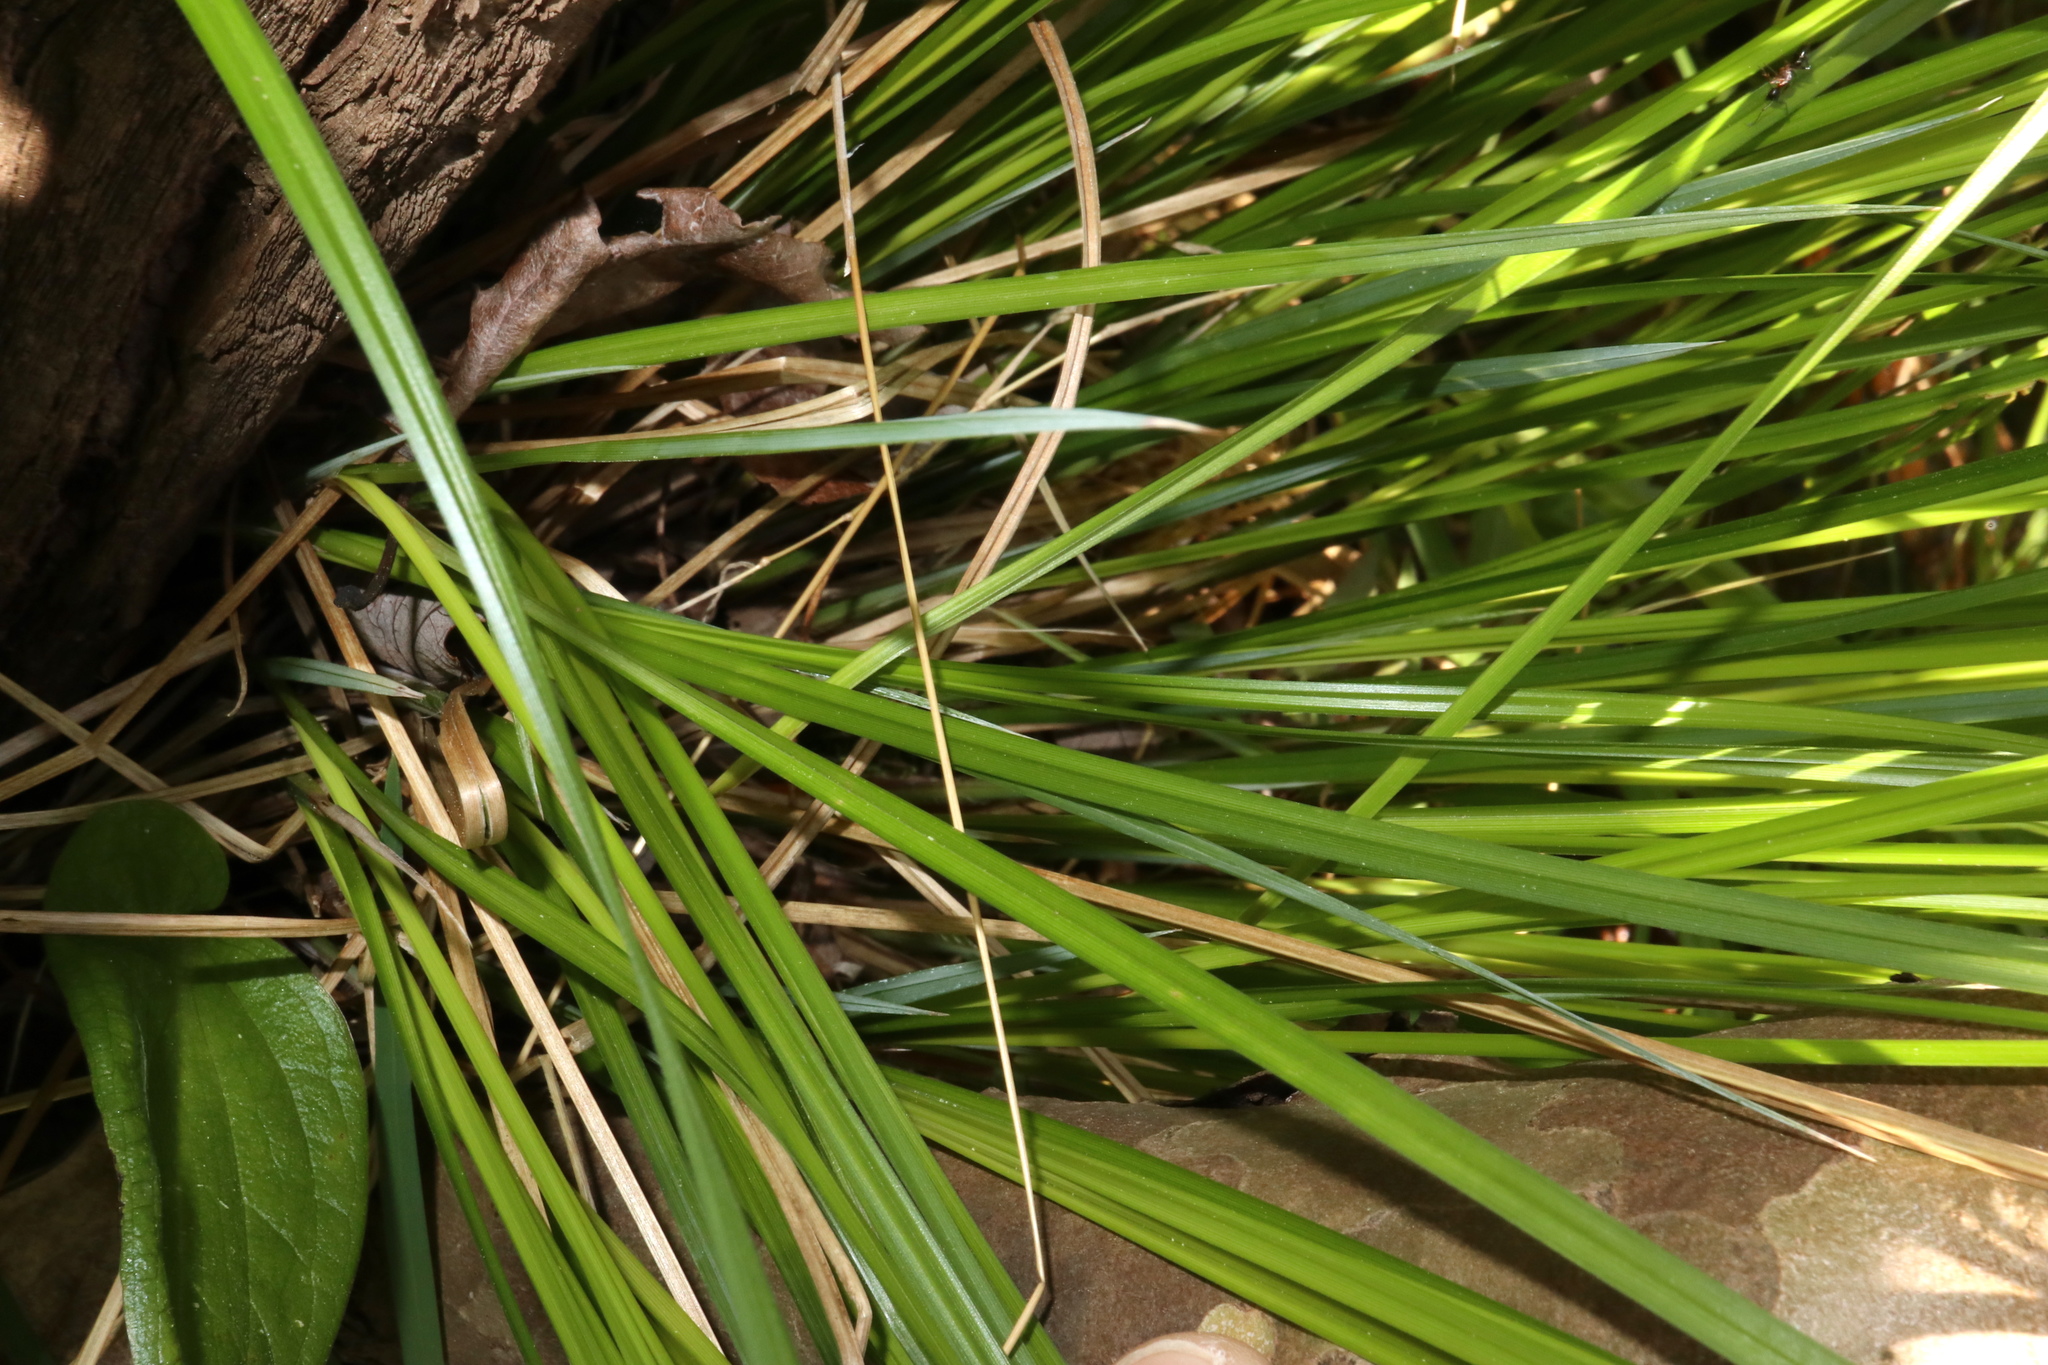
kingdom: Plantae
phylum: Tracheophyta
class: Liliopsida
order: Poales
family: Cyperaceae
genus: Carex
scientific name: Carex stricta
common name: Hummock sedge
